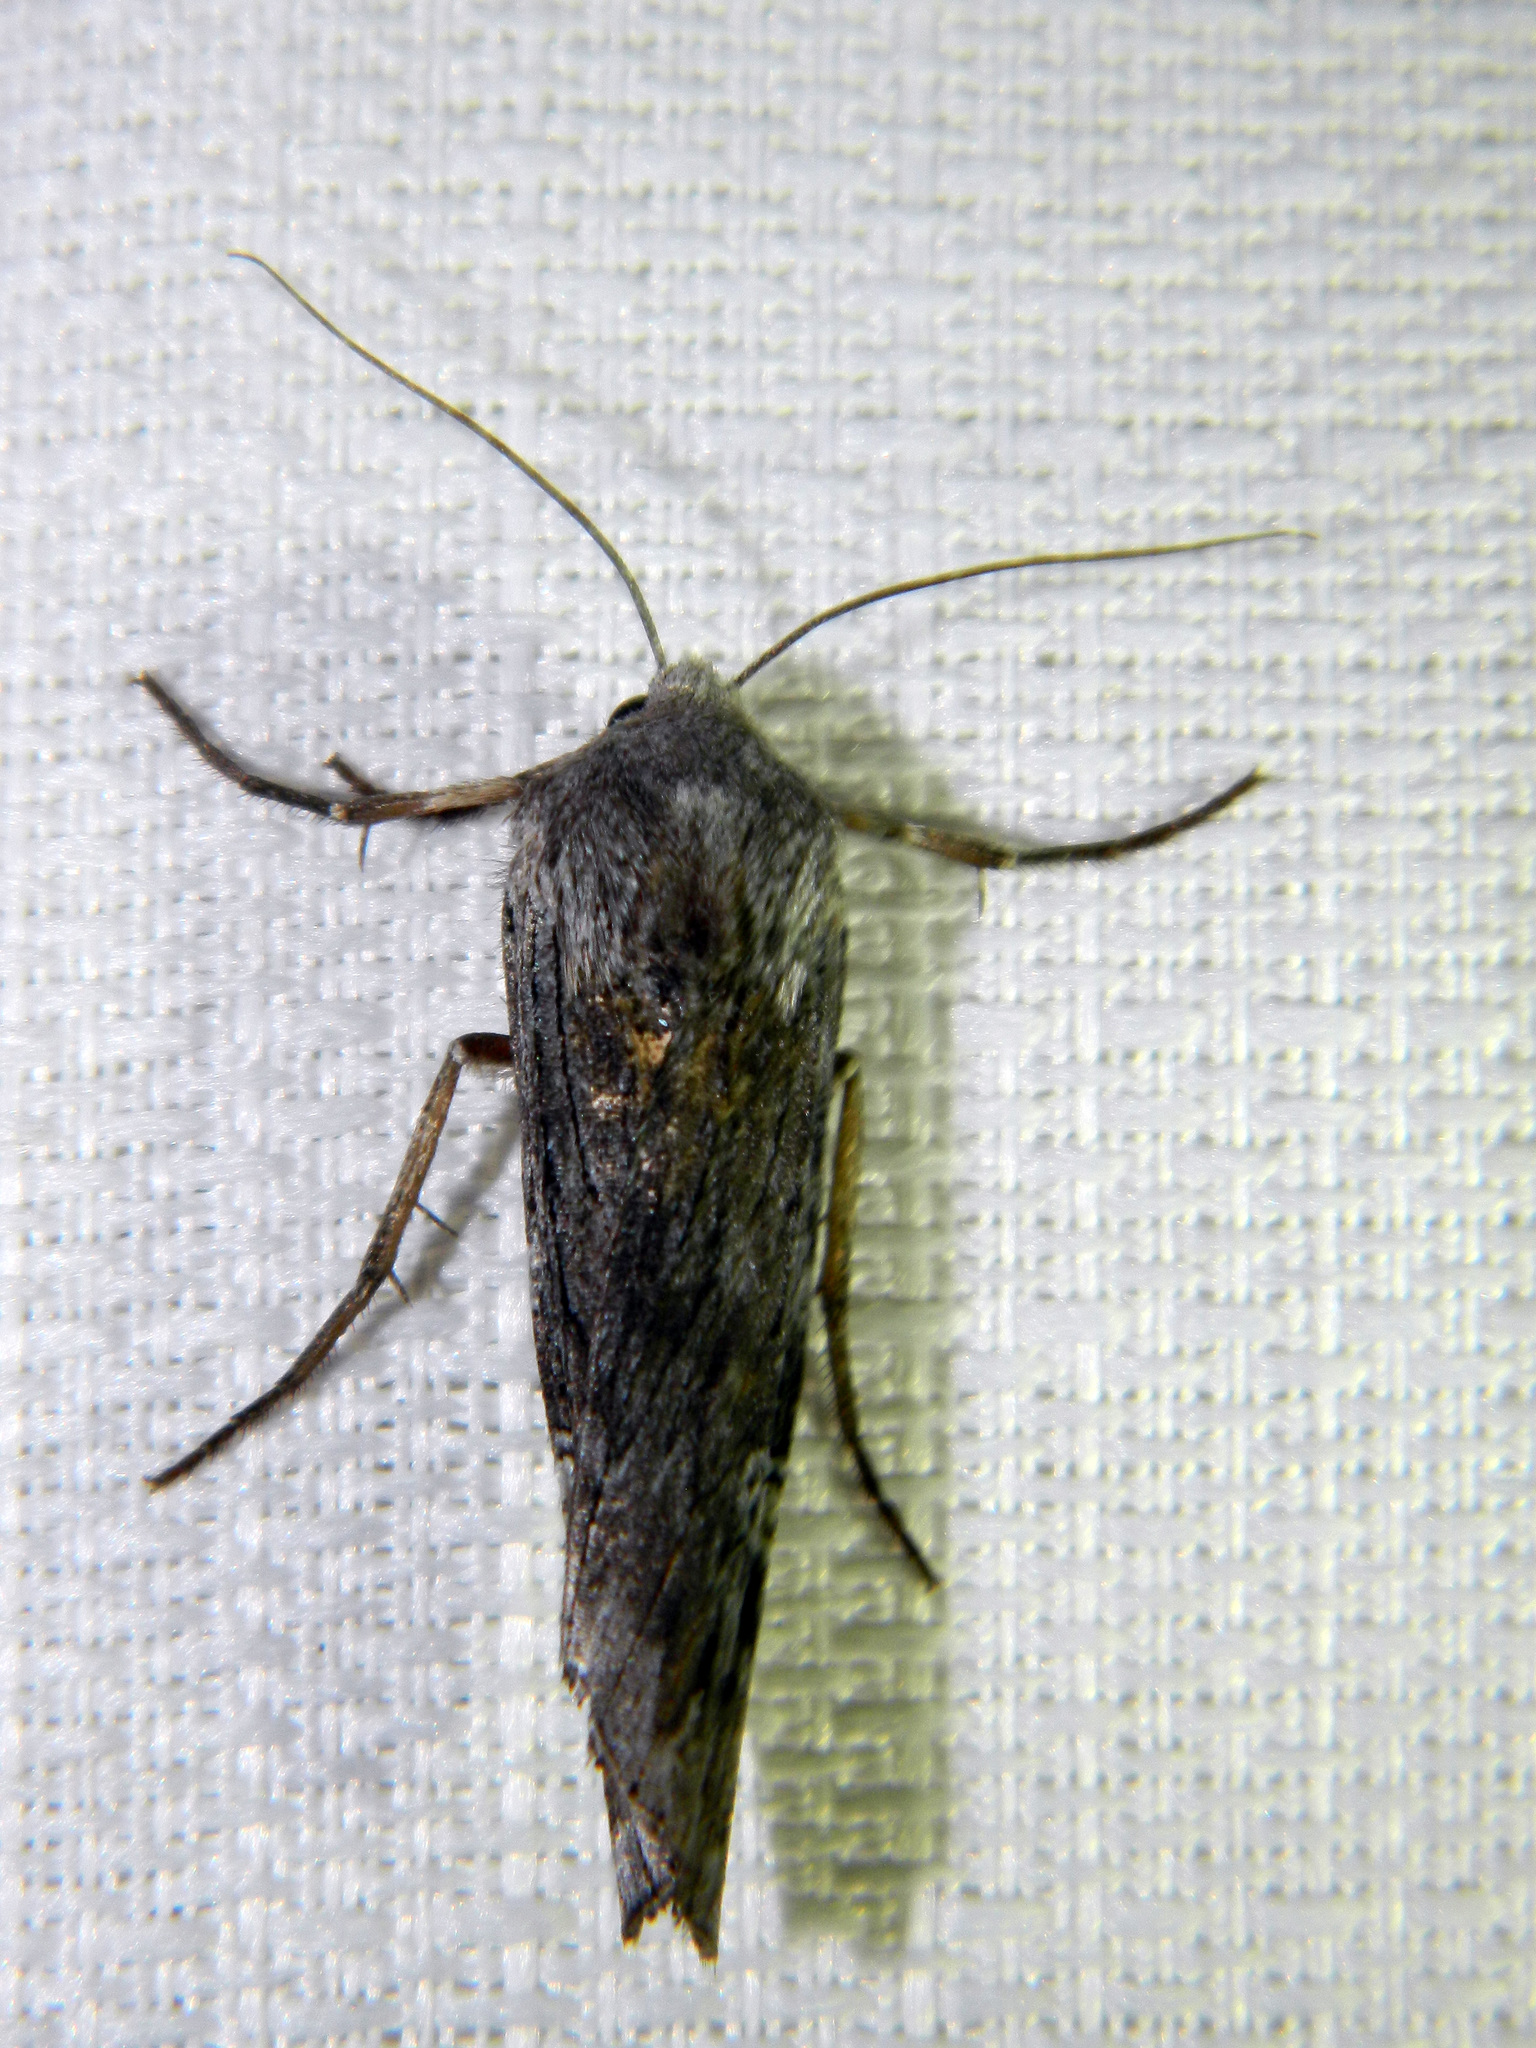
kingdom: Animalia
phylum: Arthropoda
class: Insecta
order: Lepidoptera
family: Noctuidae
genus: Xylena
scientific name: Xylena germana
